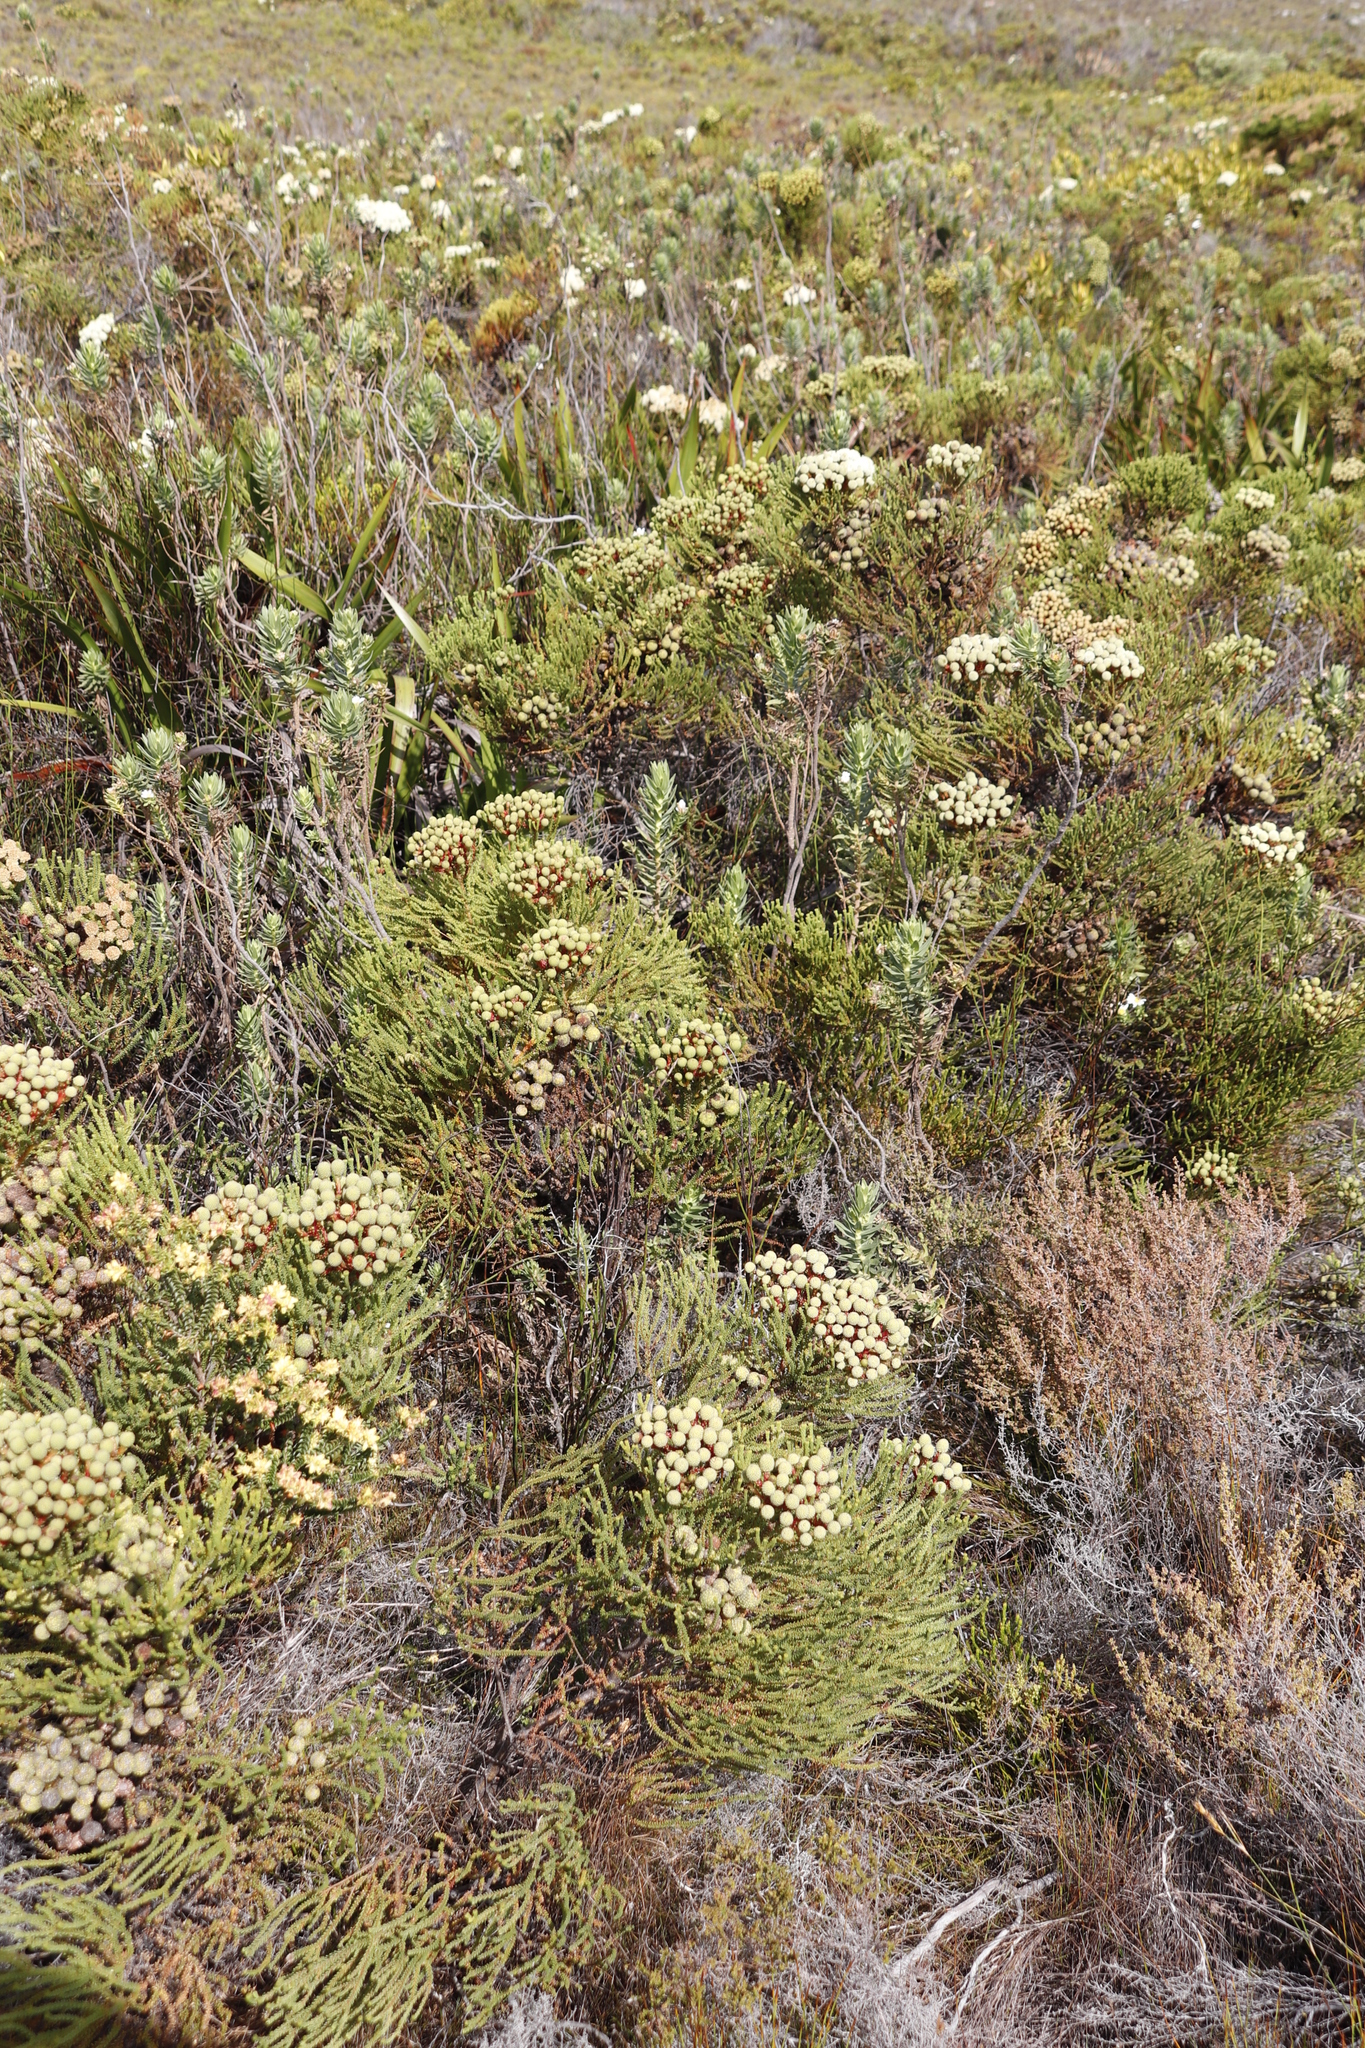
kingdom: Plantae
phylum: Tracheophyta
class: Magnoliopsida
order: Bruniales
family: Bruniaceae
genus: Berzelia
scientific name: Berzelia abrotanoides
